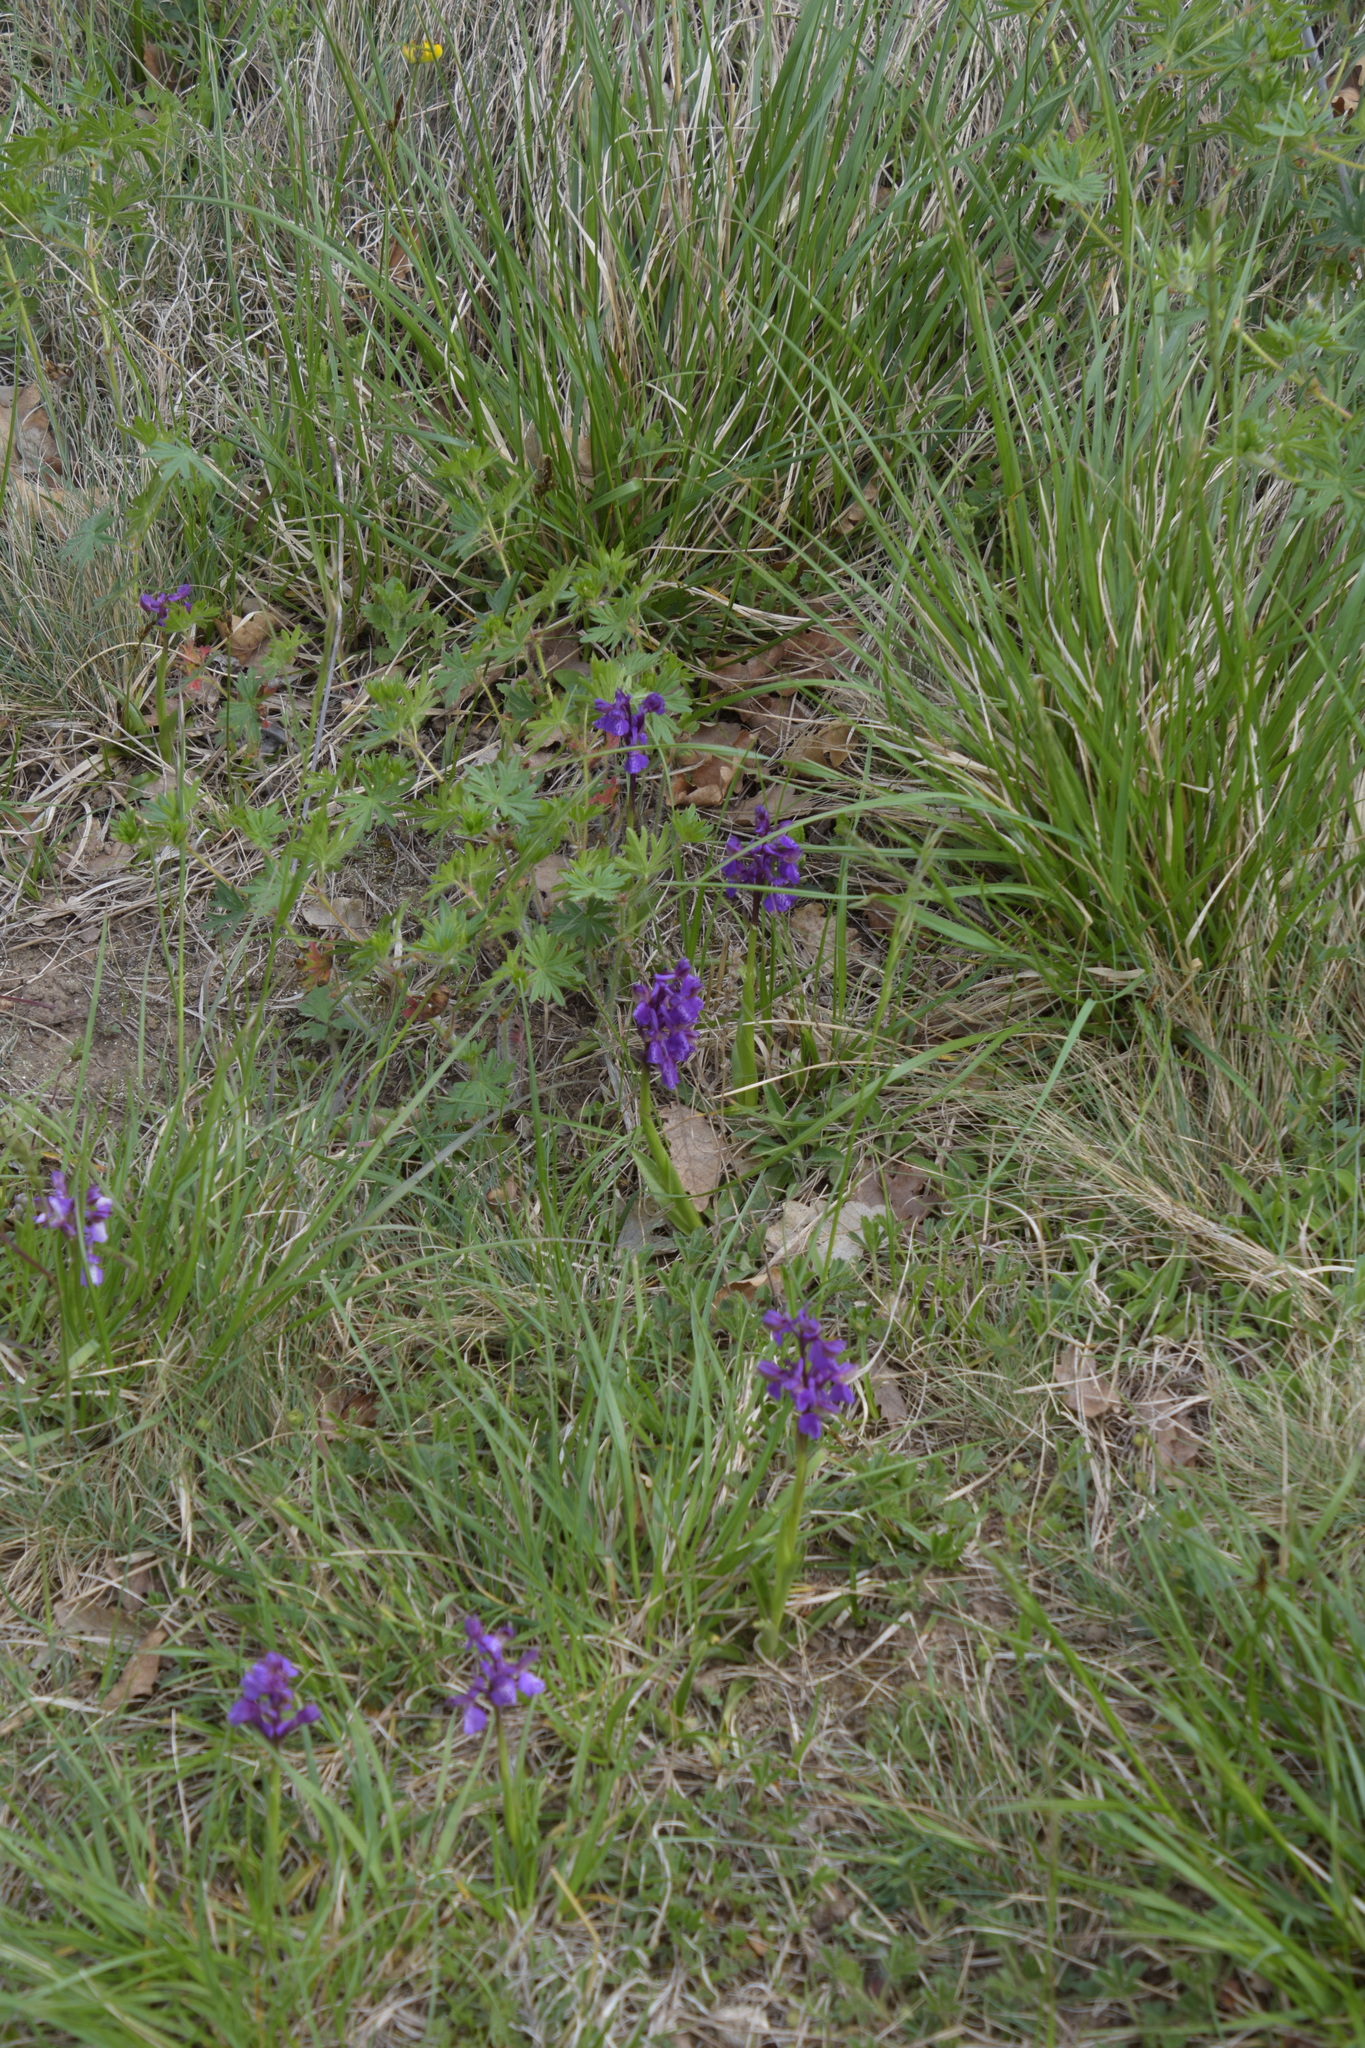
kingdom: Plantae
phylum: Tracheophyta
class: Liliopsida
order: Asparagales
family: Orchidaceae
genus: Anacamptis
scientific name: Anacamptis morio
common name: Green-winged orchid
